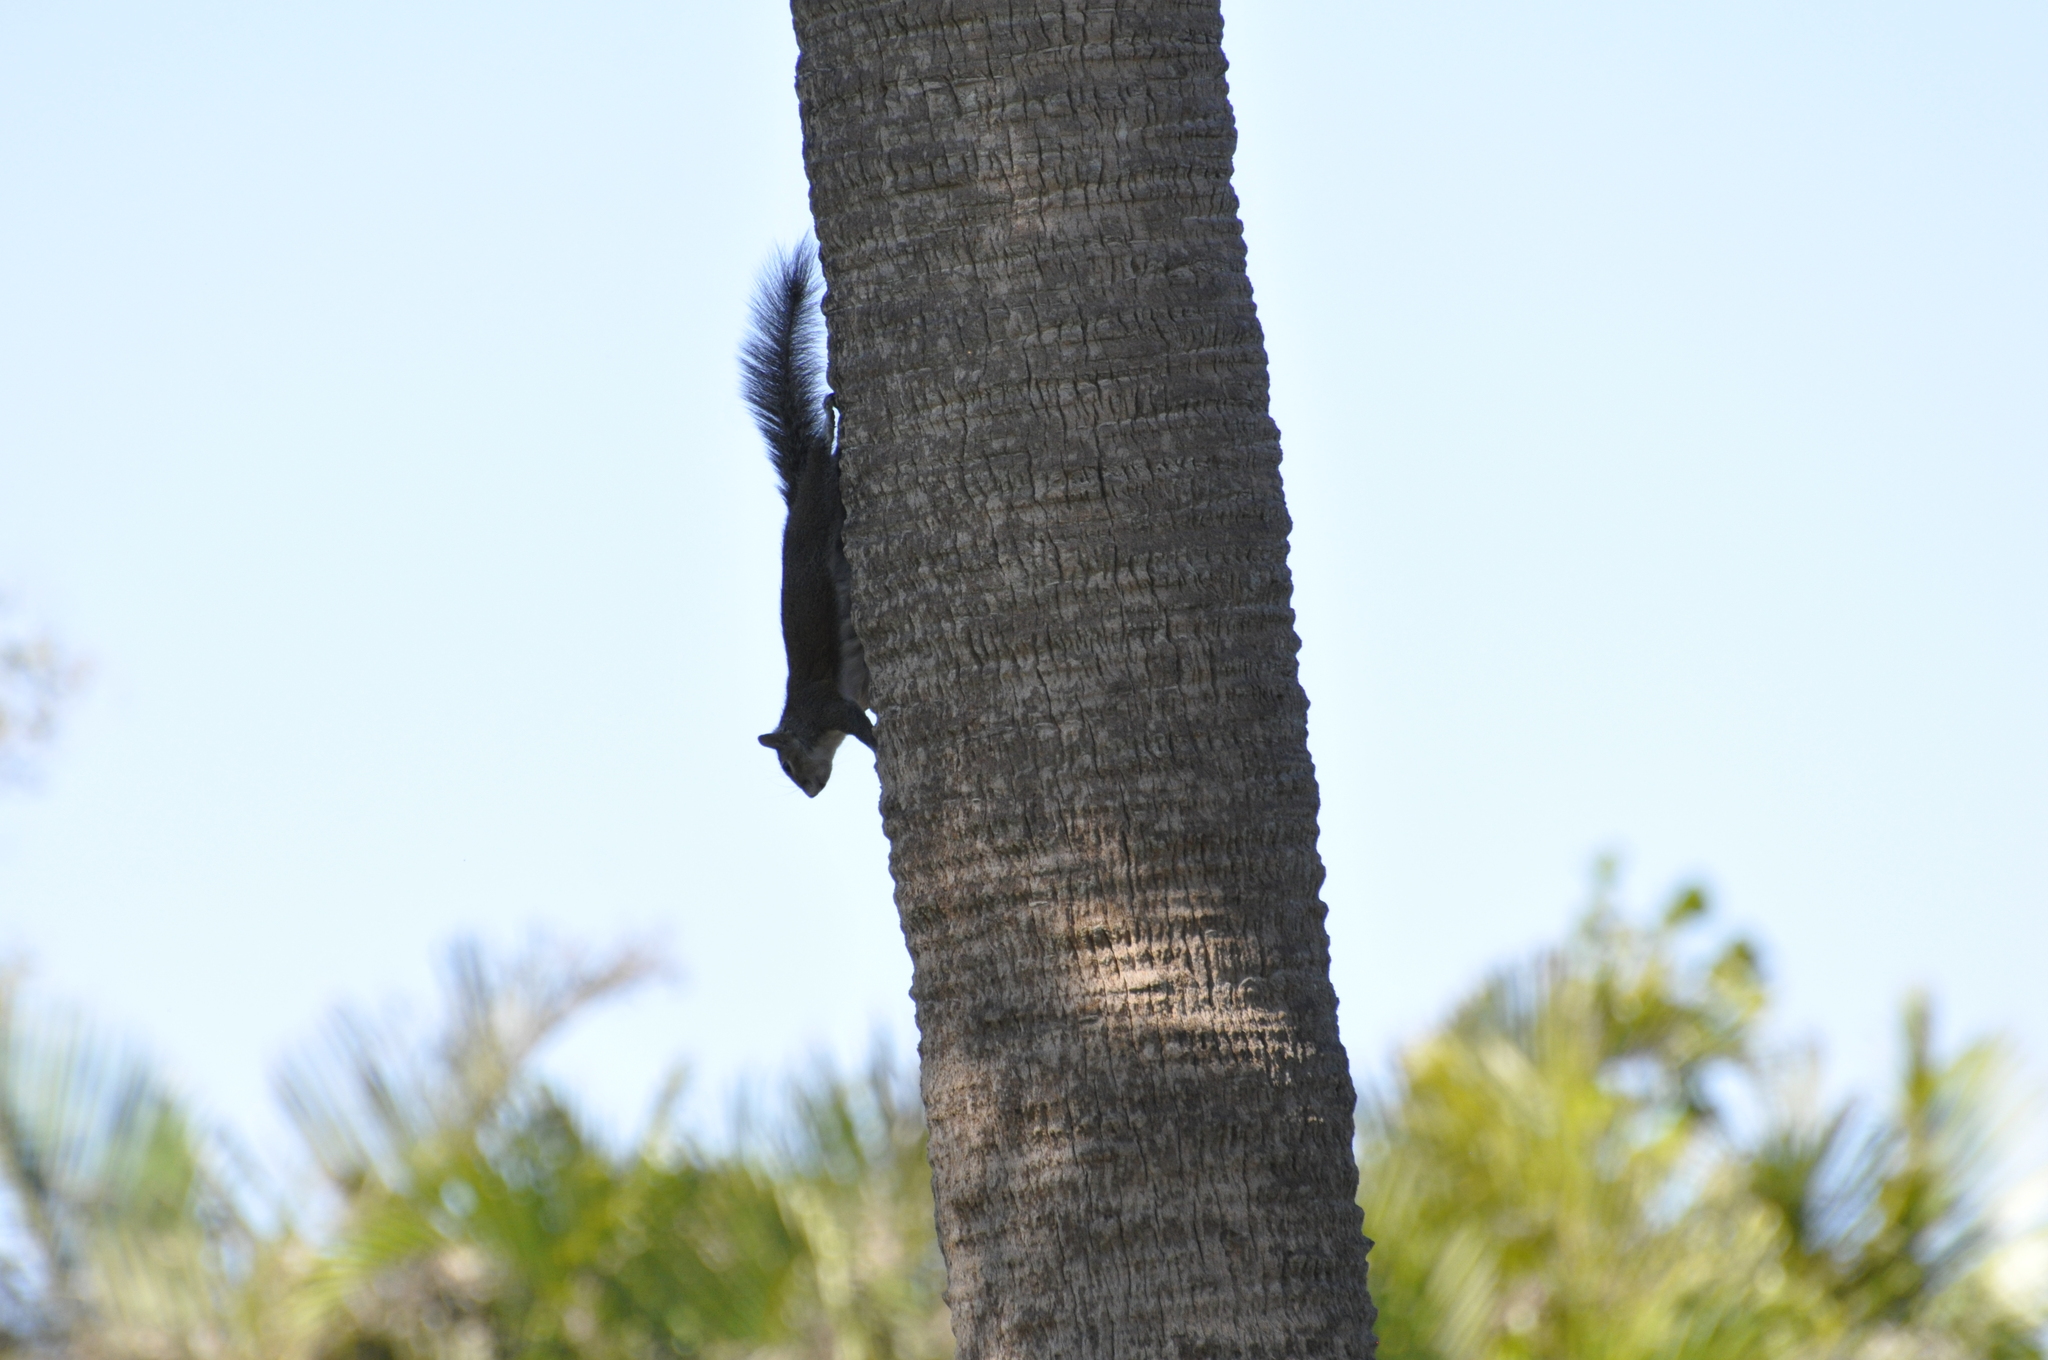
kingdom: Animalia
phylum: Chordata
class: Mammalia
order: Rodentia
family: Sciuridae
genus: Sciurus
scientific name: Sciurus carolinensis
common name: Eastern gray squirrel
